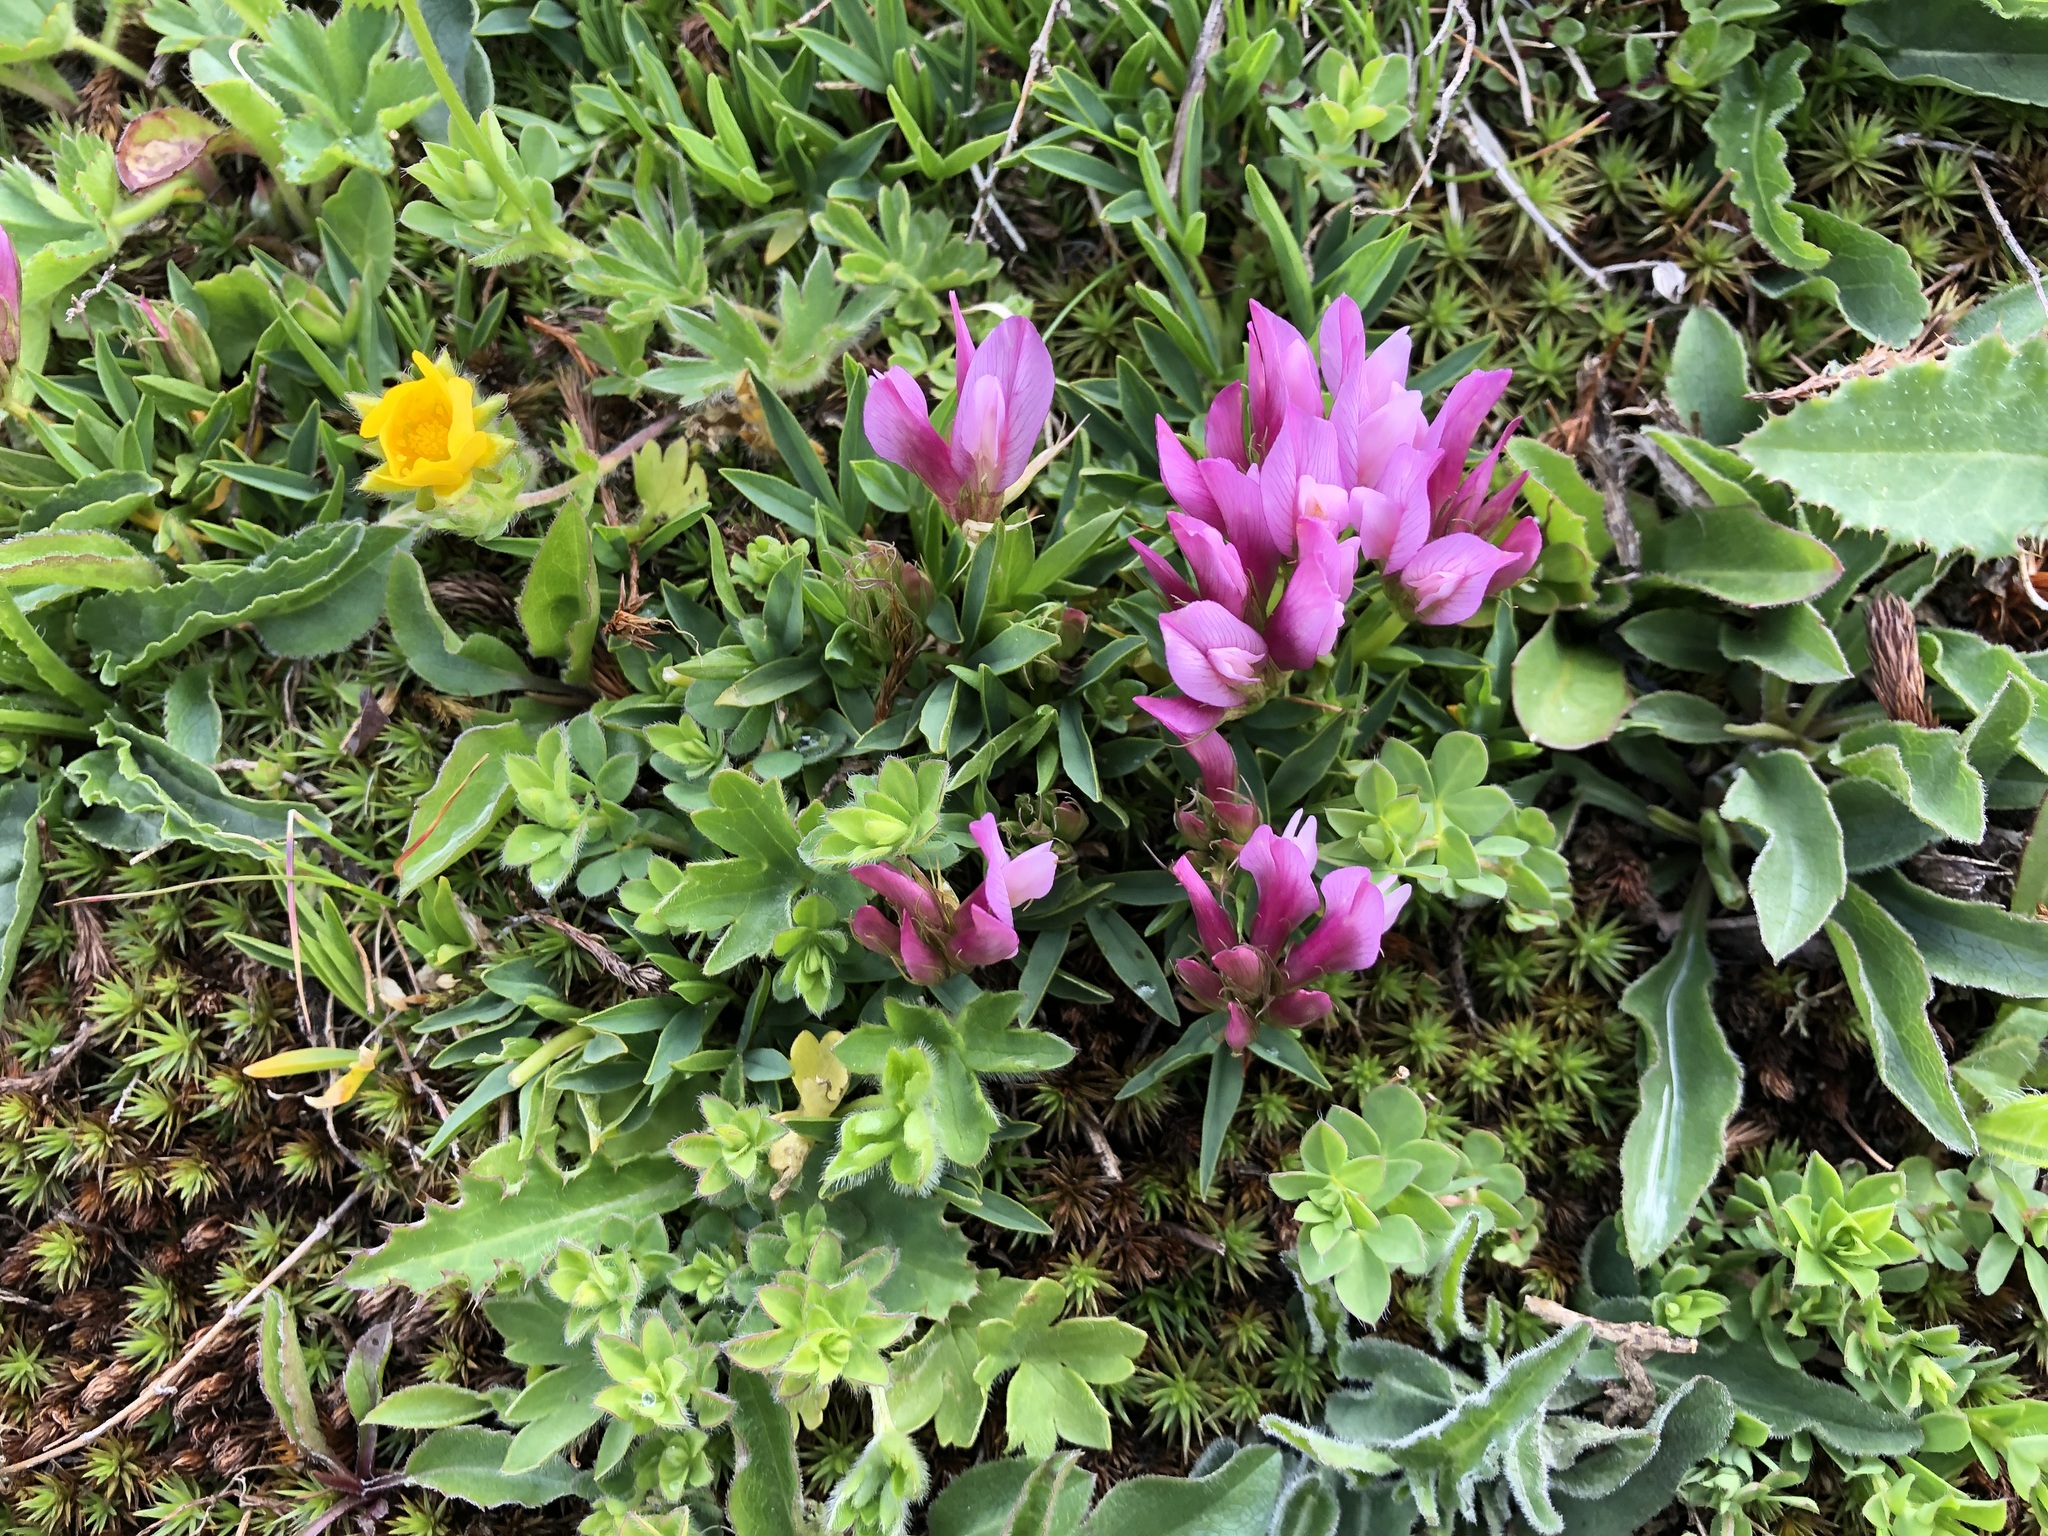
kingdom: Plantae
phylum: Tracheophyta
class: Magnoliopsida
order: Fabales
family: Fabaceae
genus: Trifolium
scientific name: Trifolium alpinum
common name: Alpine clover
